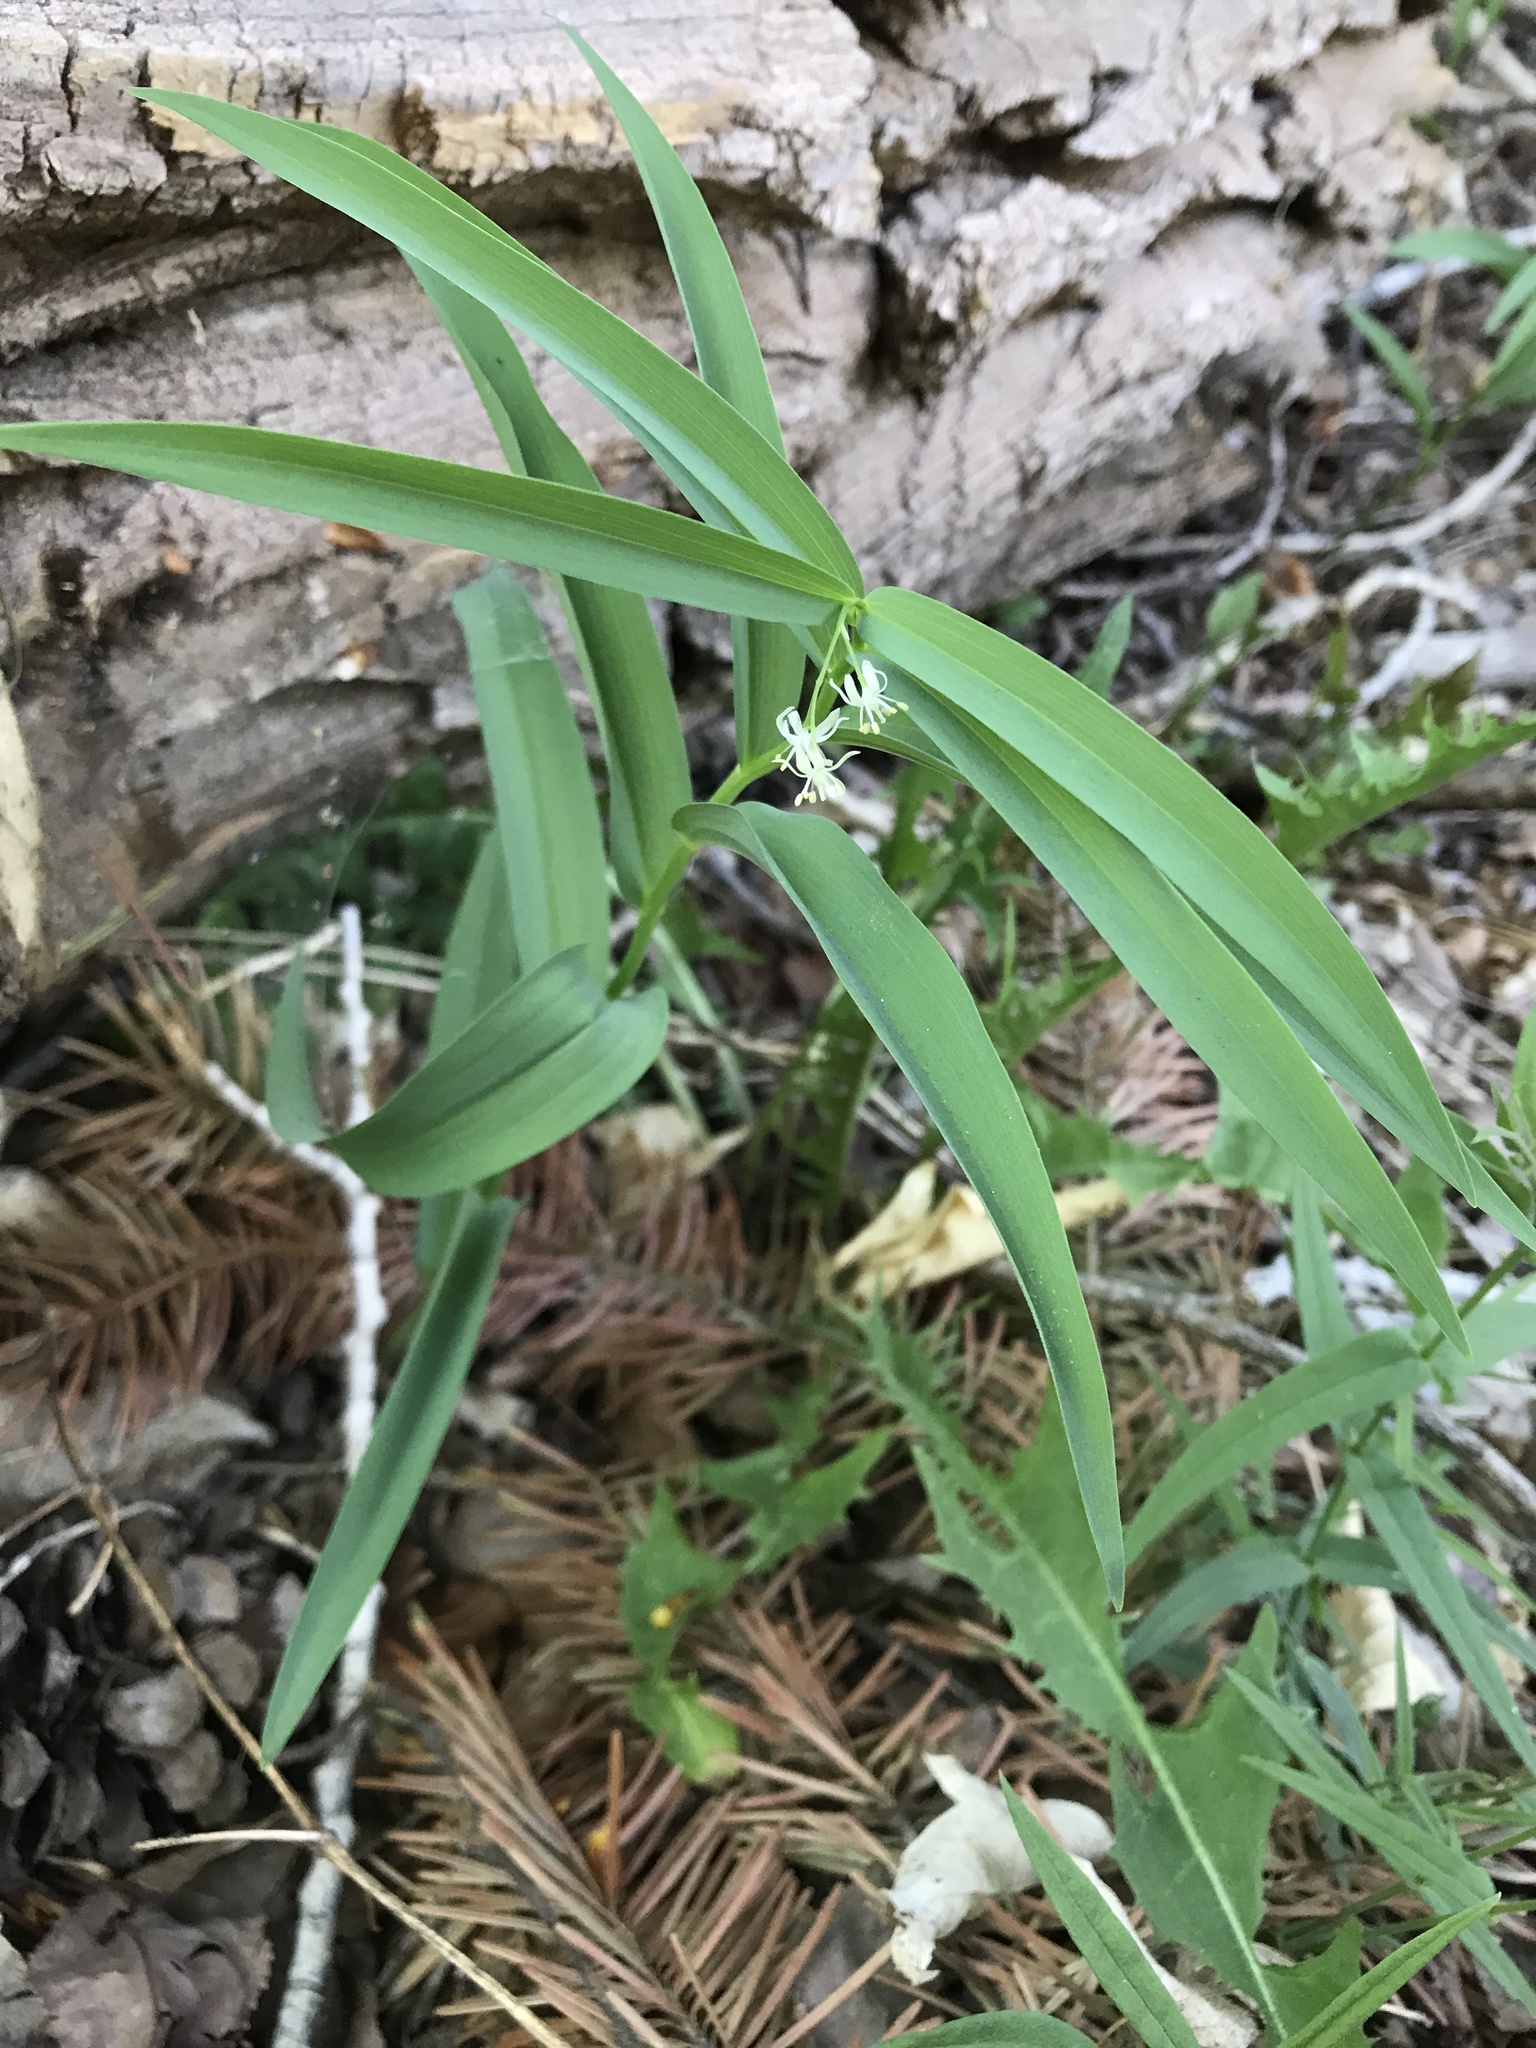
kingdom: Plantae
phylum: Tracheophyta
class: Liliopsida
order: Asparagales
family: Asparagaceae
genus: Maianthemum
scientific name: Maianthemum stellatum
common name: Little false solomon's seal
